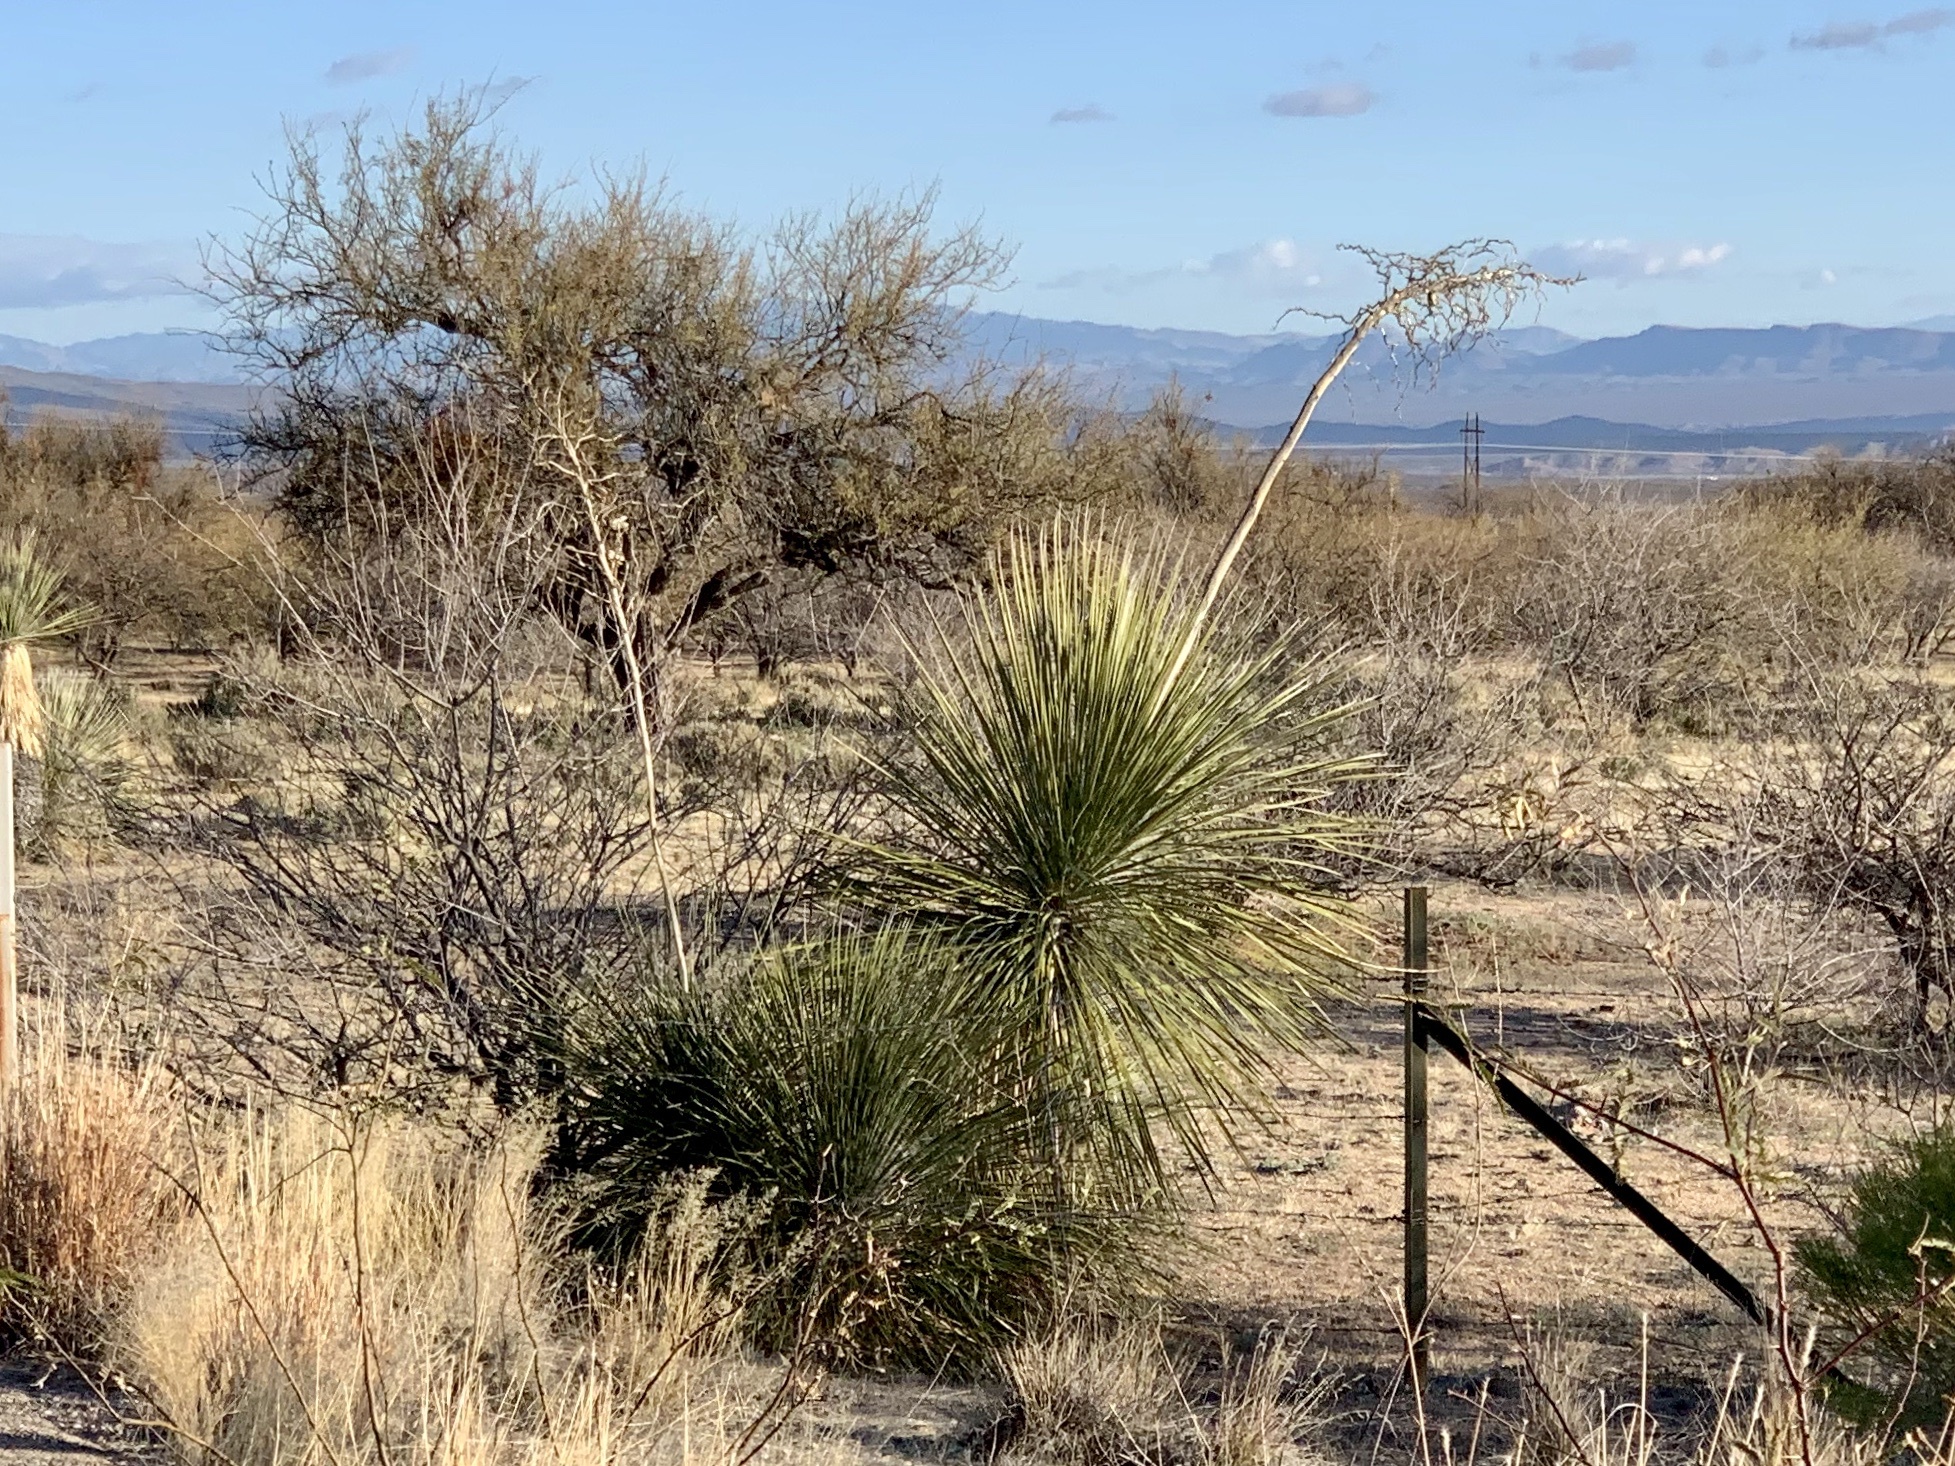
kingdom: Plantae
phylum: Tracheophyta
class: Liliopsida
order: Asparagales
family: Asparagaceae
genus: Yucca
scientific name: Yucca elata
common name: Palmella
